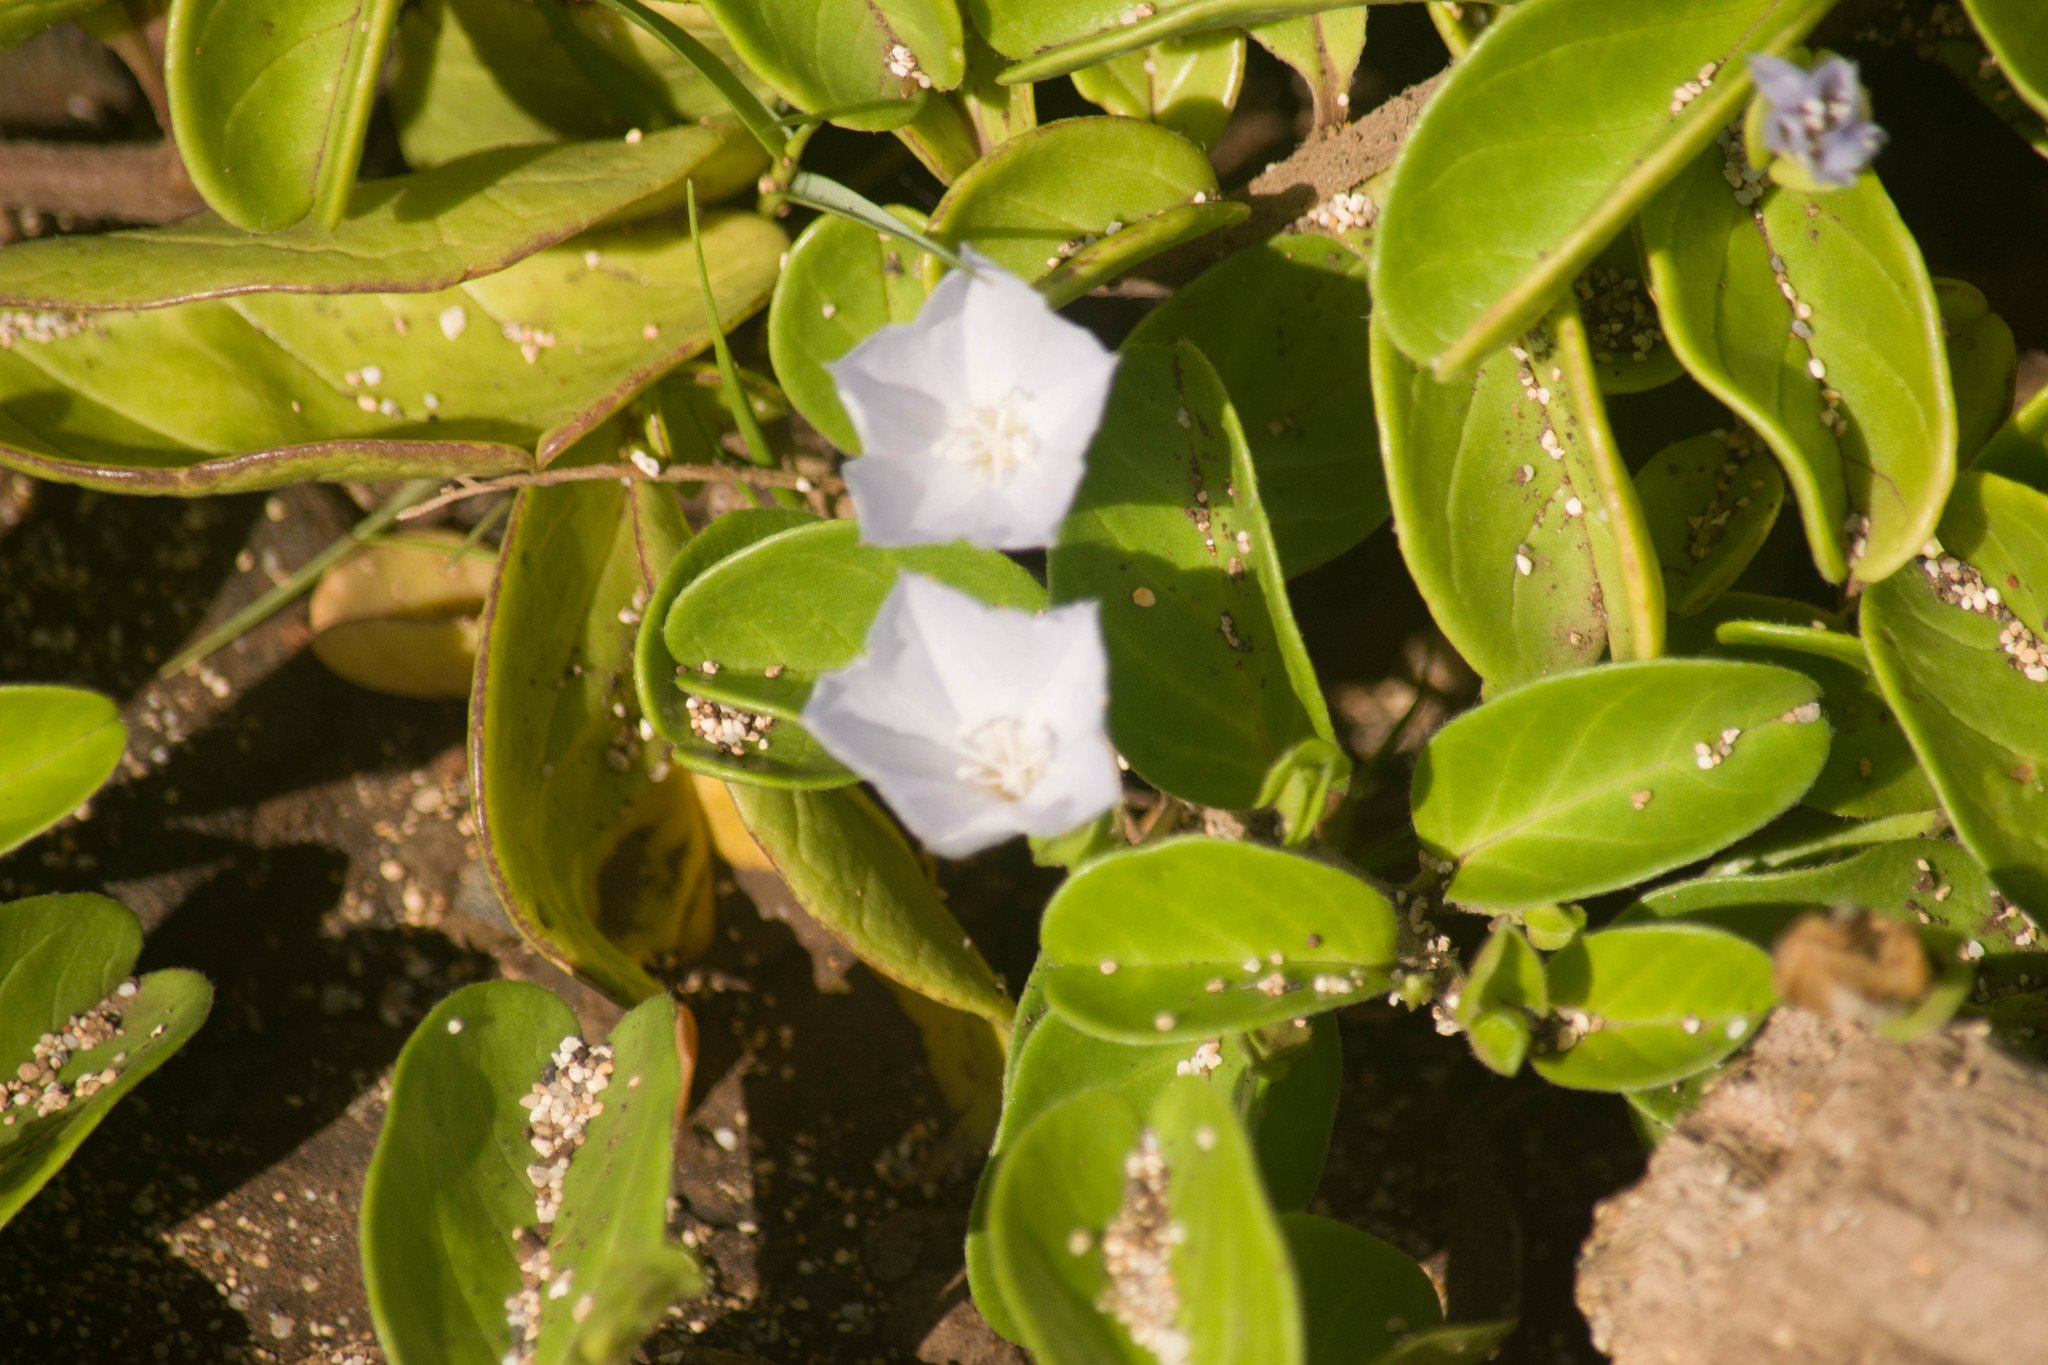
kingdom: Plantae
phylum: Tracheophyta
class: Magnoliopsida
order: Solanales
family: Convolvulaceae
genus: Jacquemontia
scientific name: Jacquemontia sandwicensis
